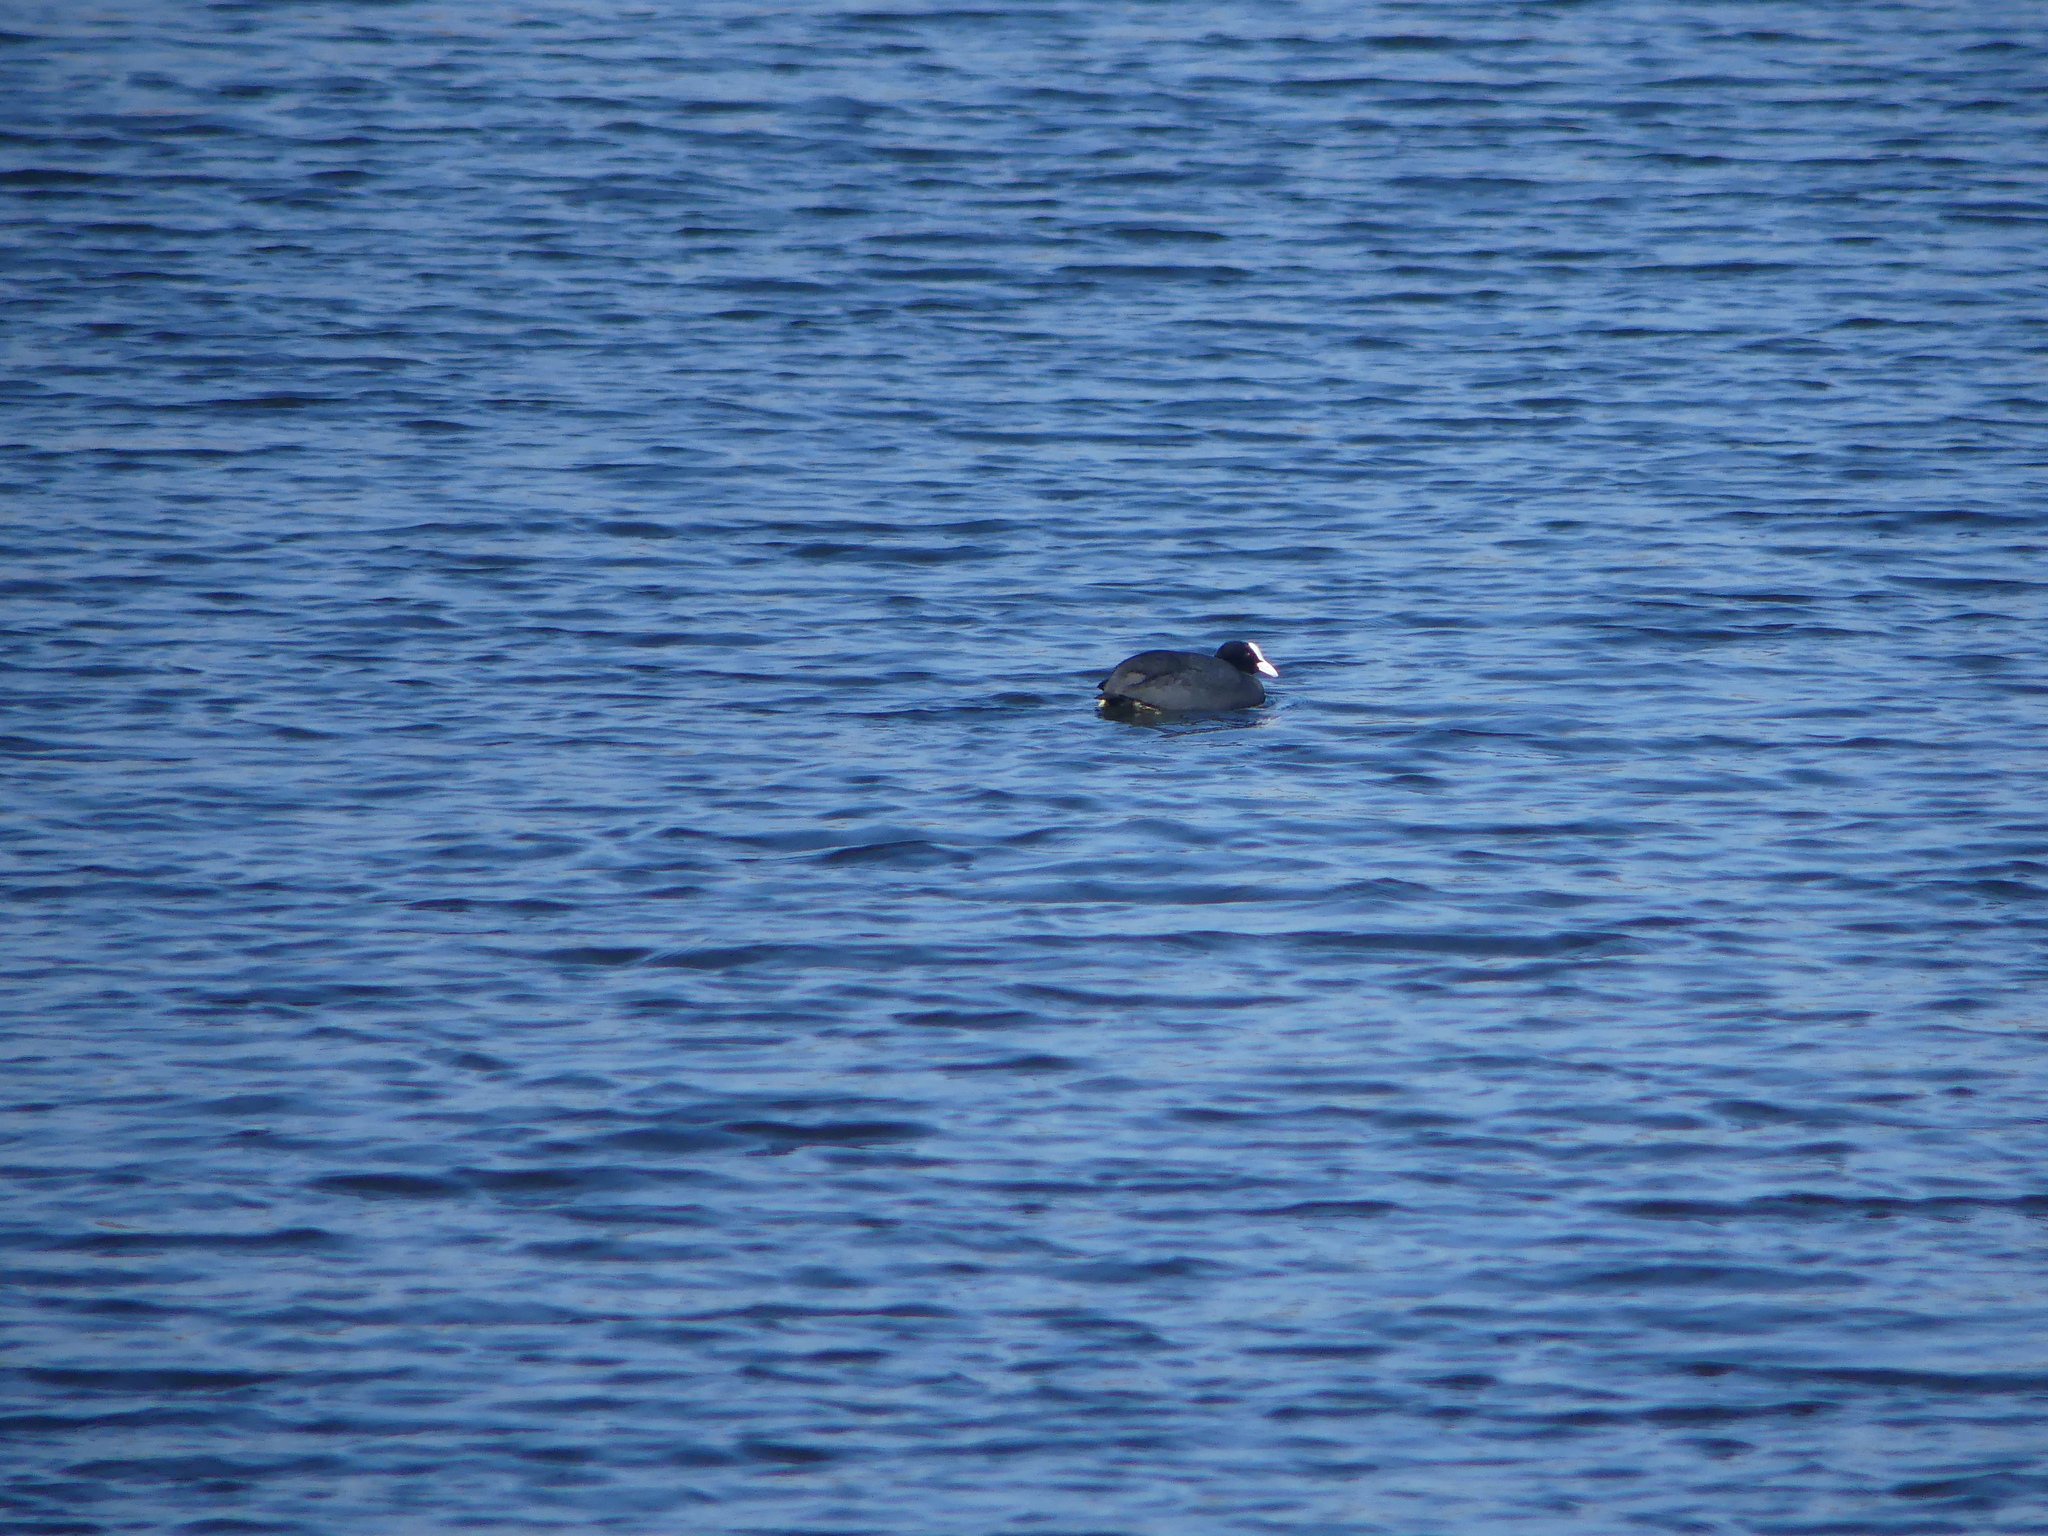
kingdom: Animalia
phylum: Chordata
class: Aves
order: Gruiformes
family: Rallidae
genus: Fulica
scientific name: Fulica atra
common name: Eurasian coot
